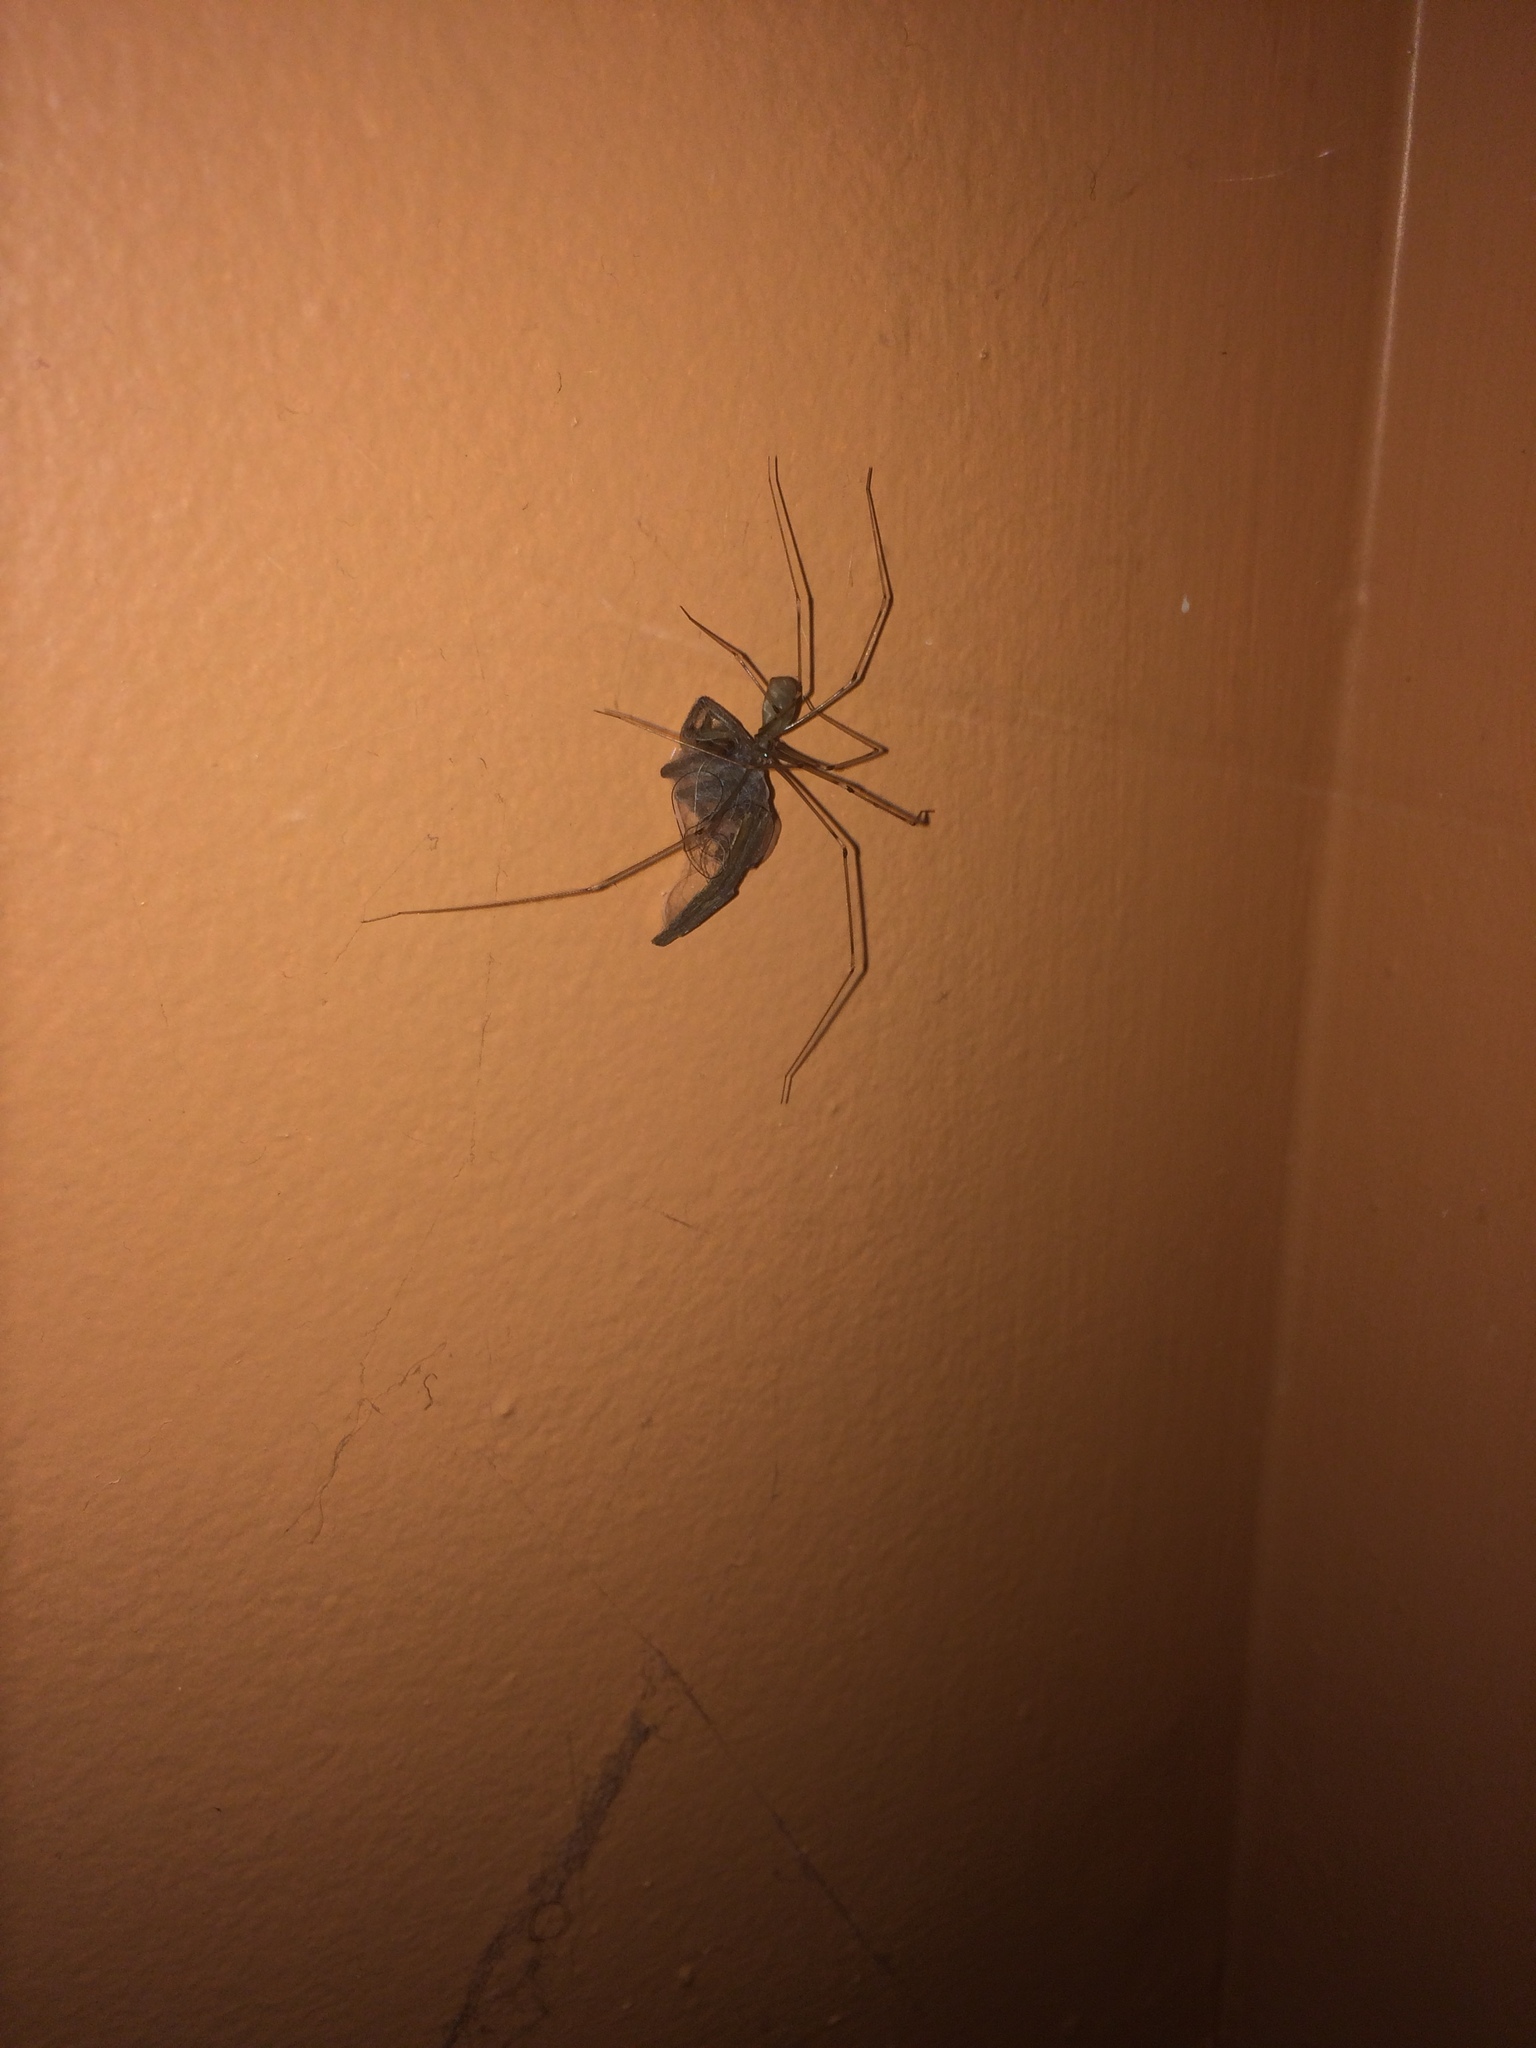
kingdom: Animalia
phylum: Arthropoda
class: Arachnida
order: Araneae
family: Pholcidae
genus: Pholcus
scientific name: Pholcus phalangioides
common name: Longbodied cellar spider
